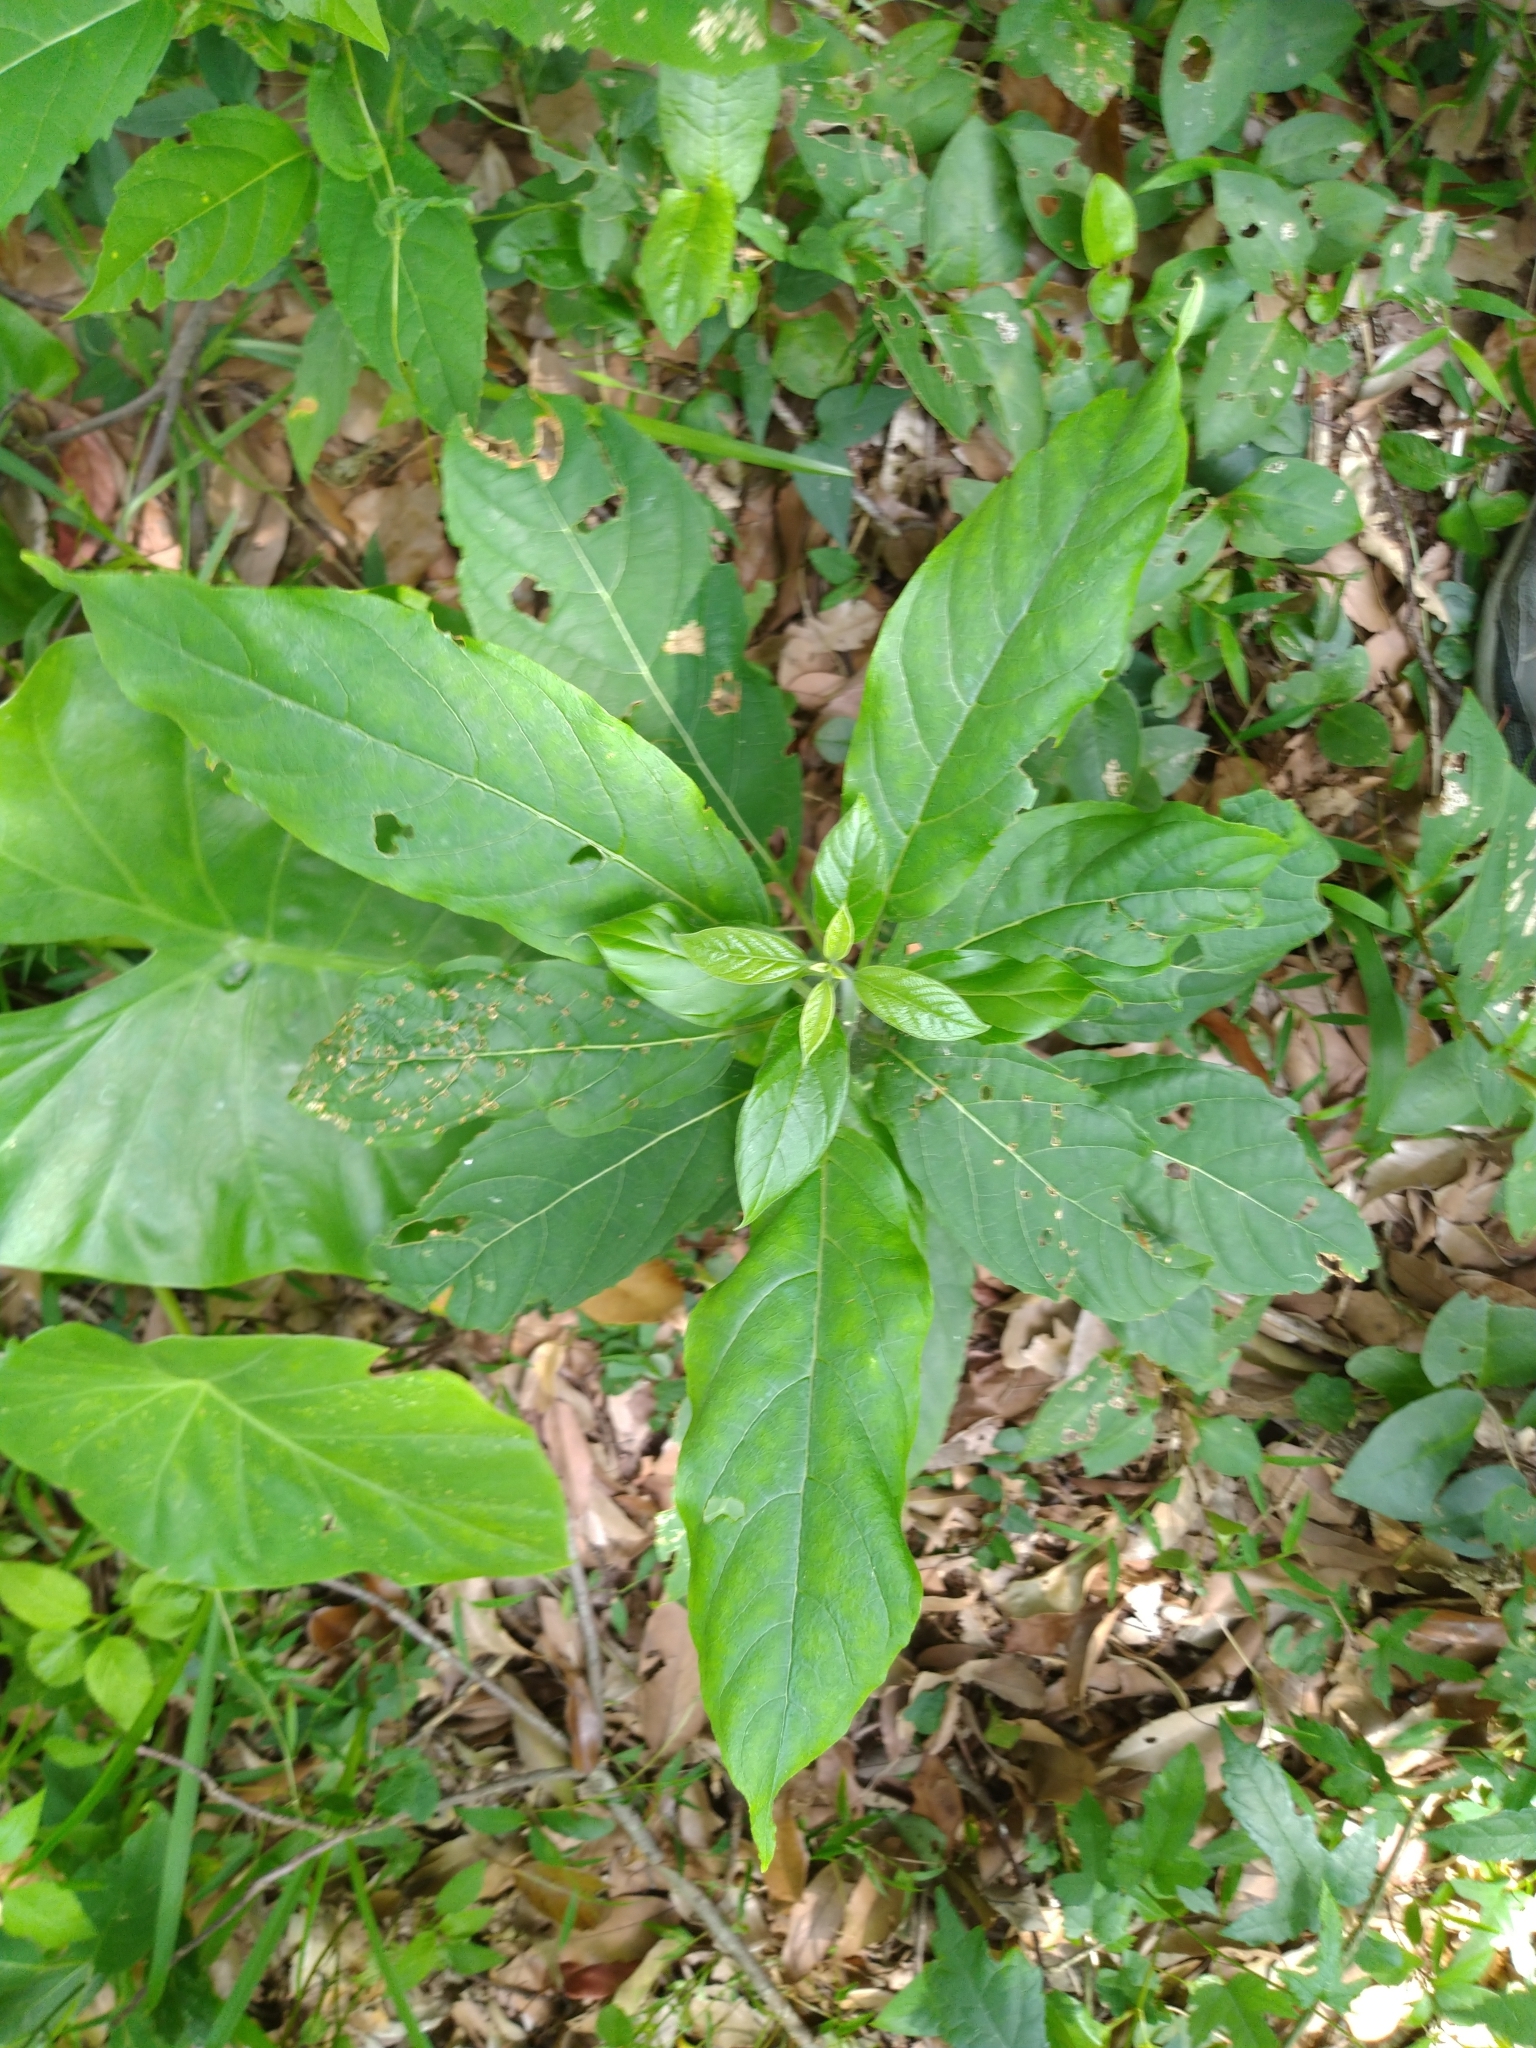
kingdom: Plantae
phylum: Tracheophyta
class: Magnoliopsida
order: Lamiales
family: Lamiaceae
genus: Clerodendrum
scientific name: Clerodendrum cyrtophyllum
